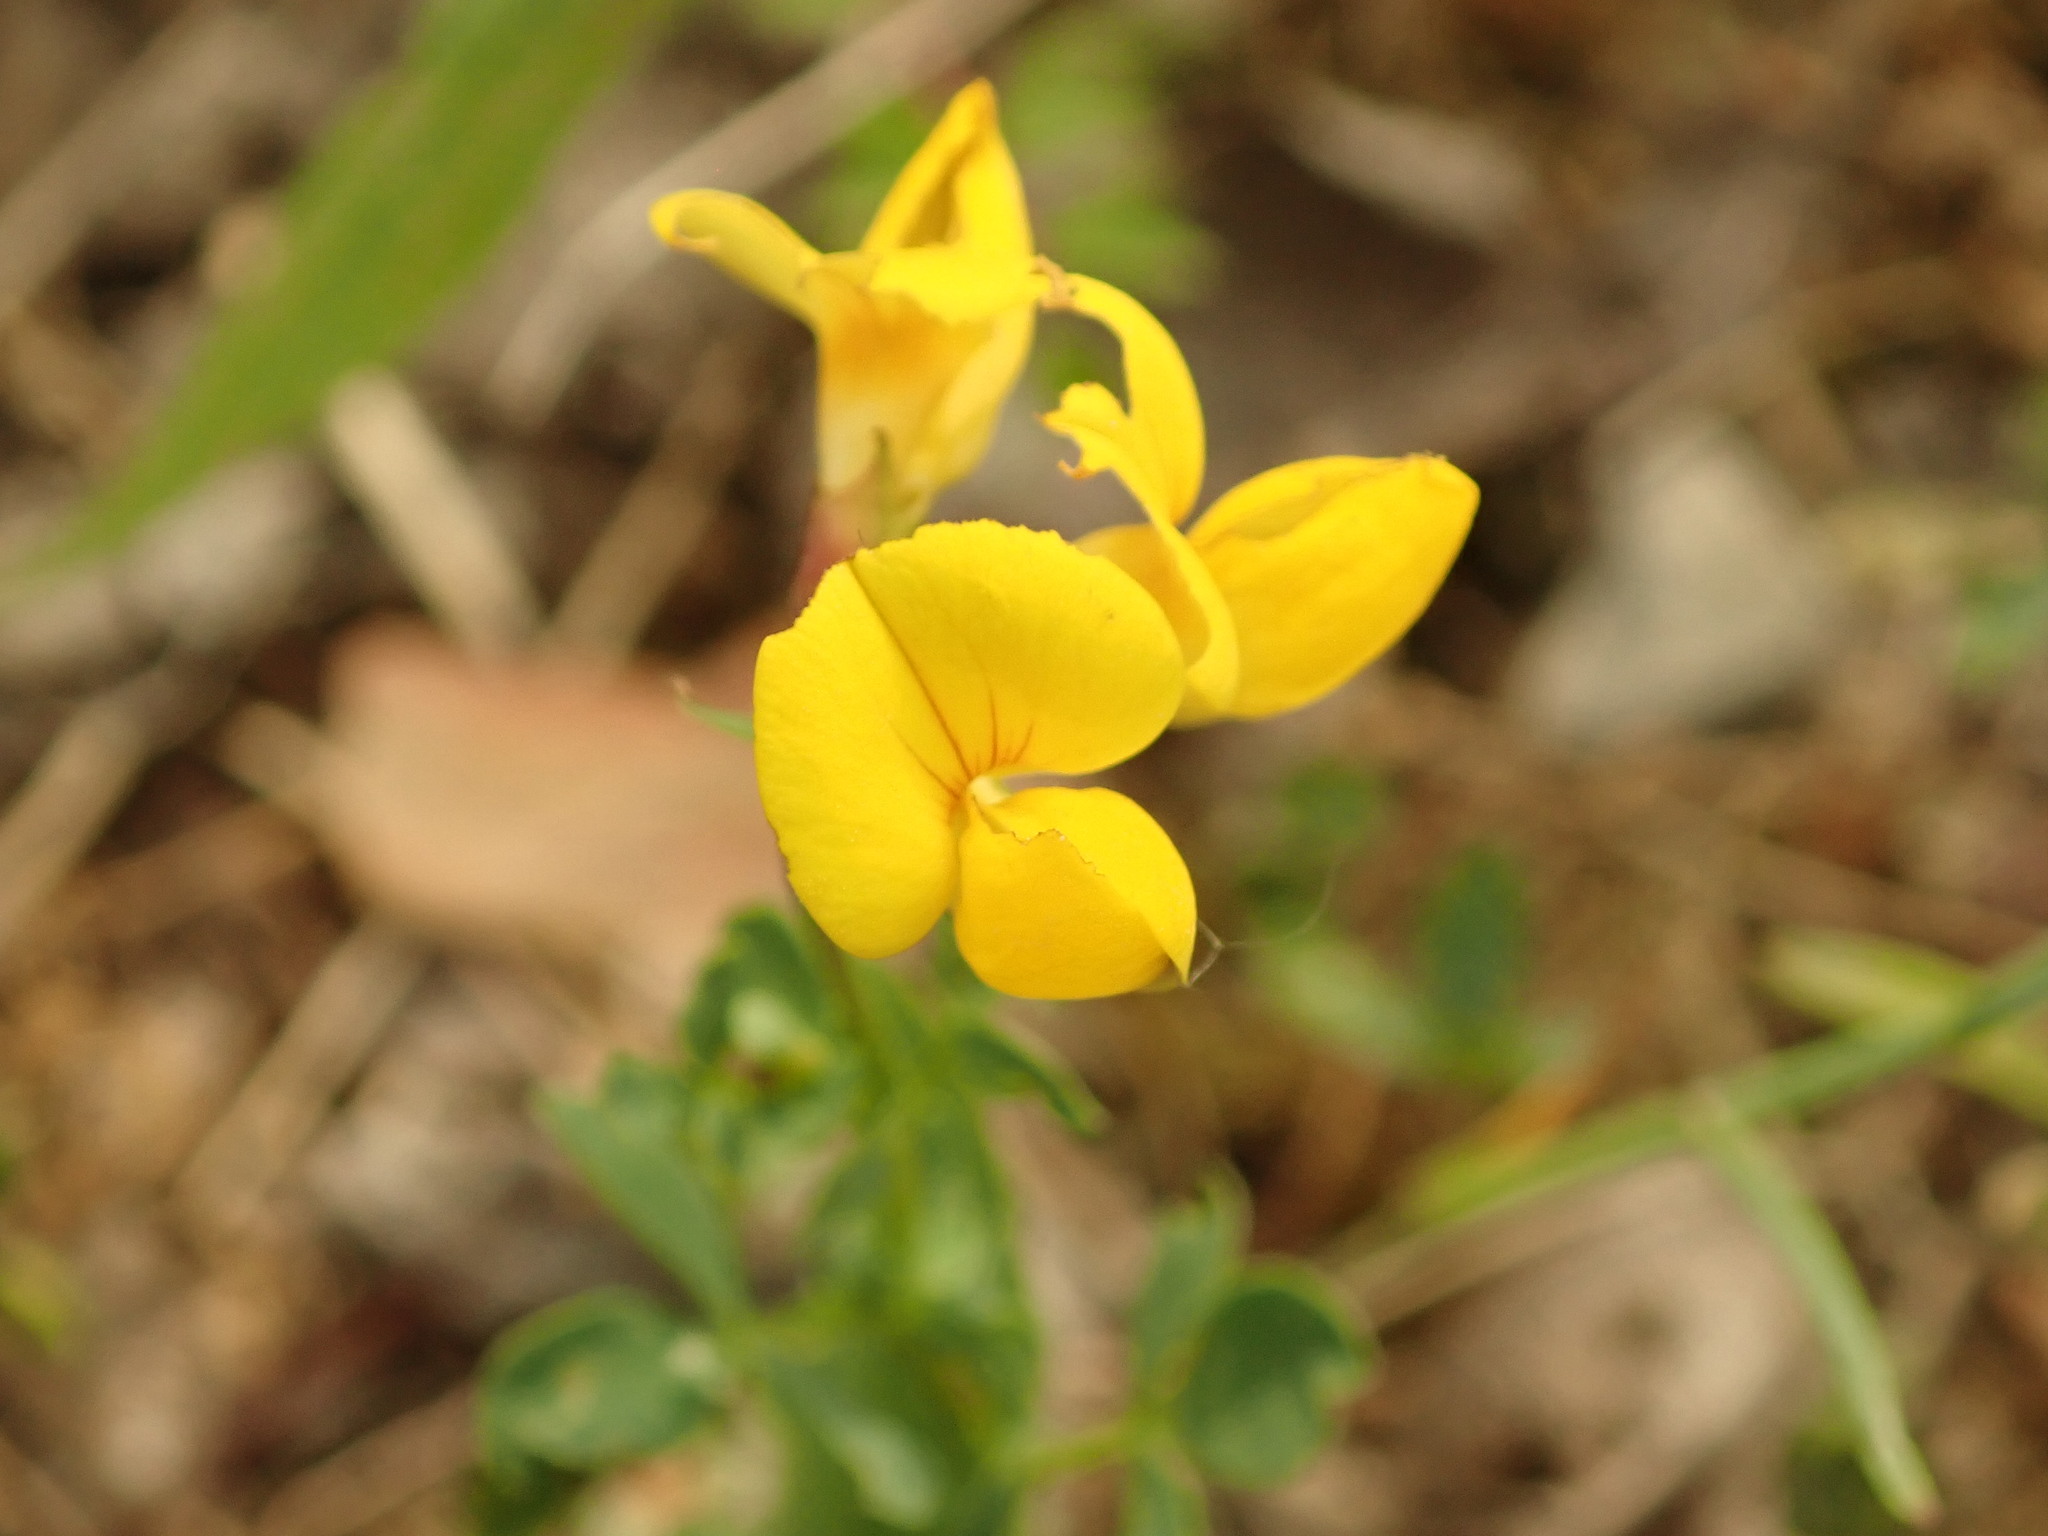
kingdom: Plantae
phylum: Tracheophyta
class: Magnoliopsida
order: Fabales
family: Fabaceae
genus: Lotus
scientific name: Lotus corniculatus
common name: Common bird's-foot-trefoil
